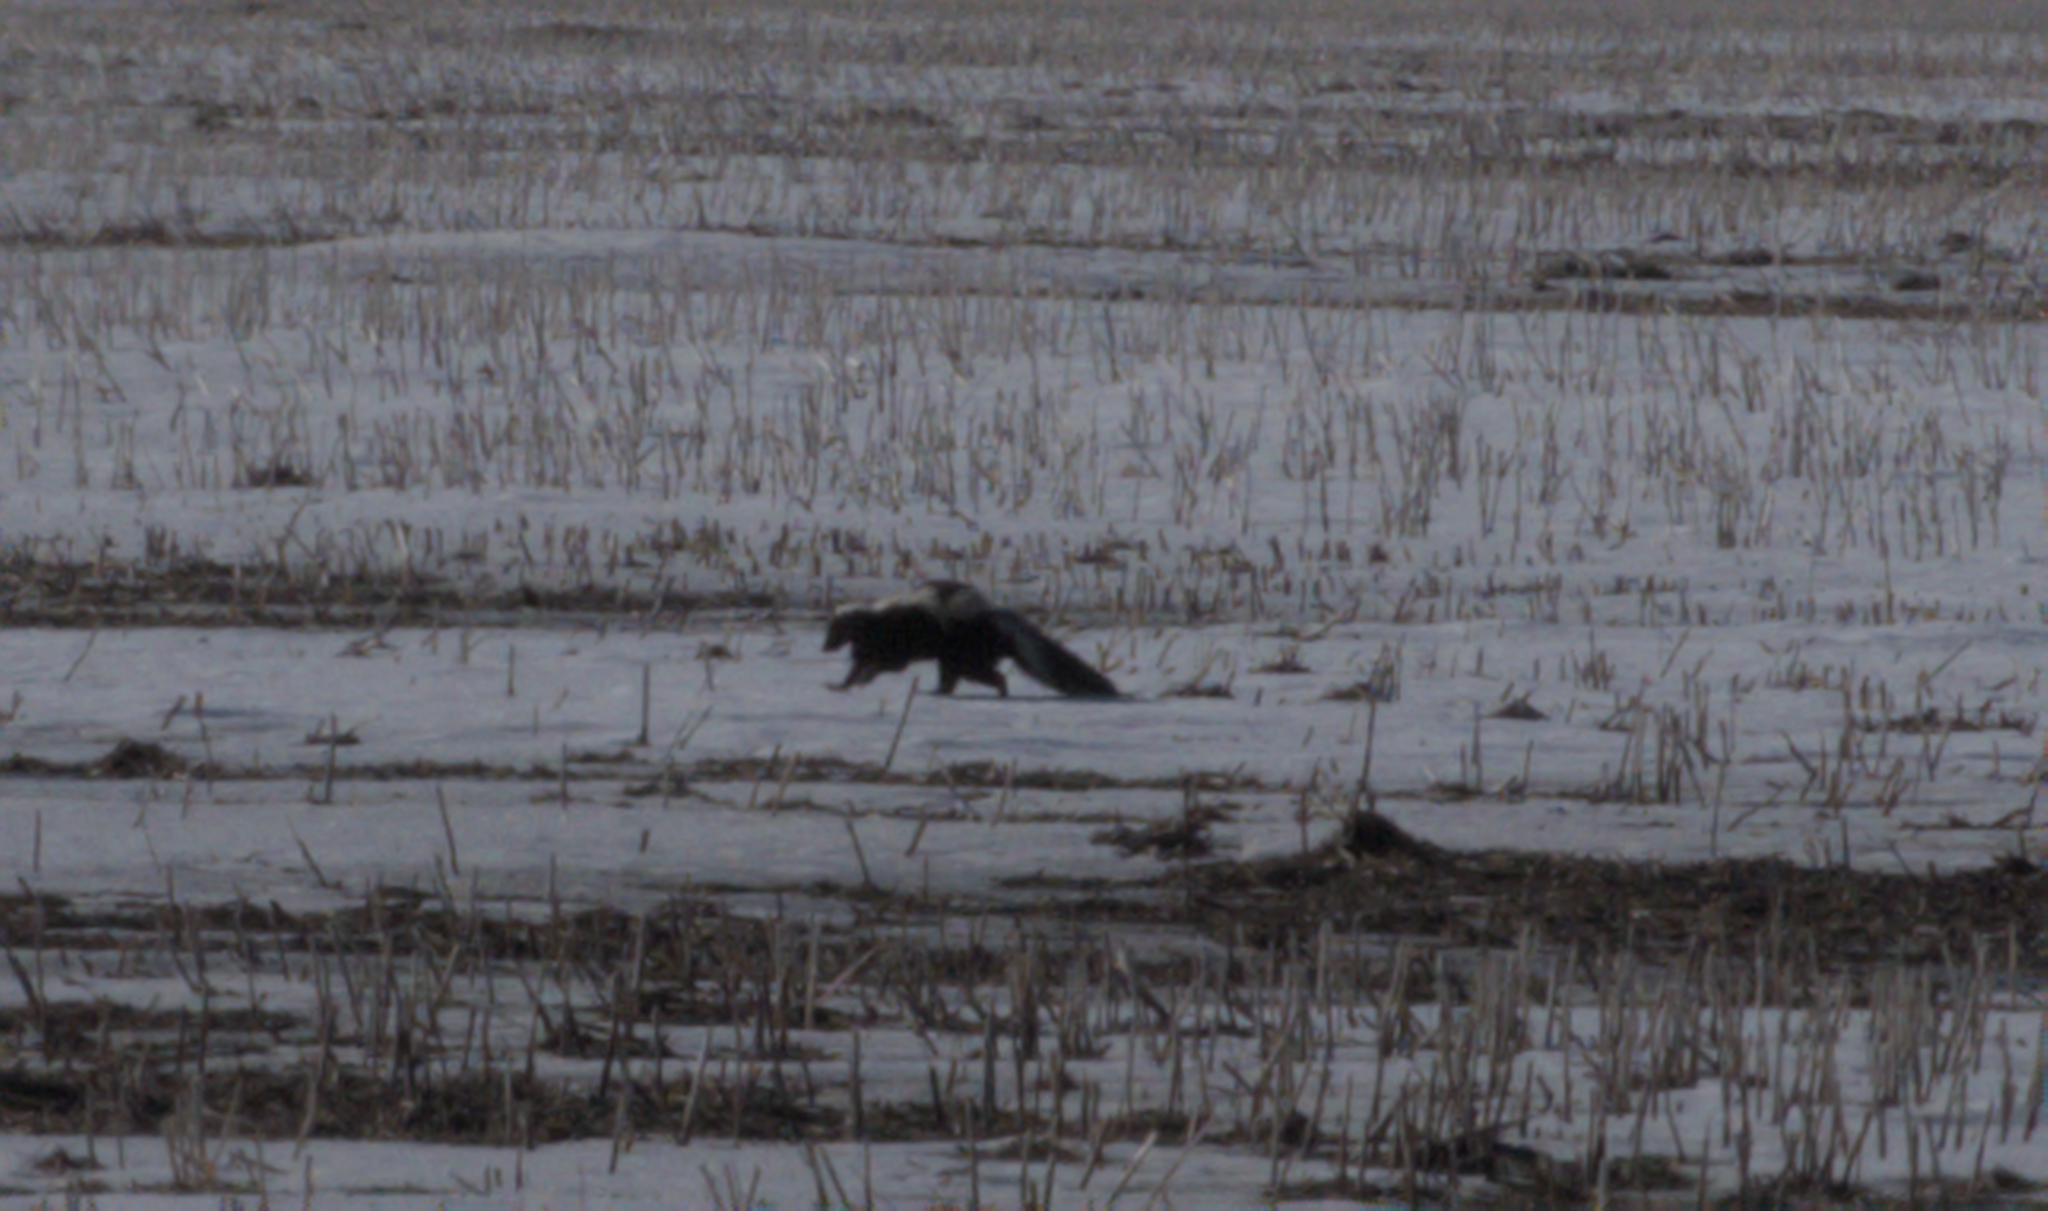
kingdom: Animalia
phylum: Chordata
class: Mammalia
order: Carnivora
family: Mephitidae
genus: Mephitis
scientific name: Mephitis mephitis
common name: Striped skunk
